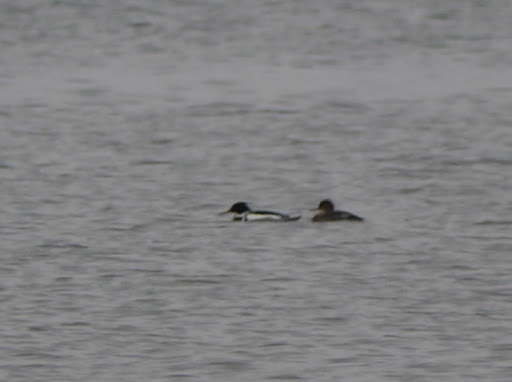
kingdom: Animalia
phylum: Chordata
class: Aves
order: Anseriformes
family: Anatidae
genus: Mergus
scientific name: Mergus serrator
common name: Red-breasted merganser
